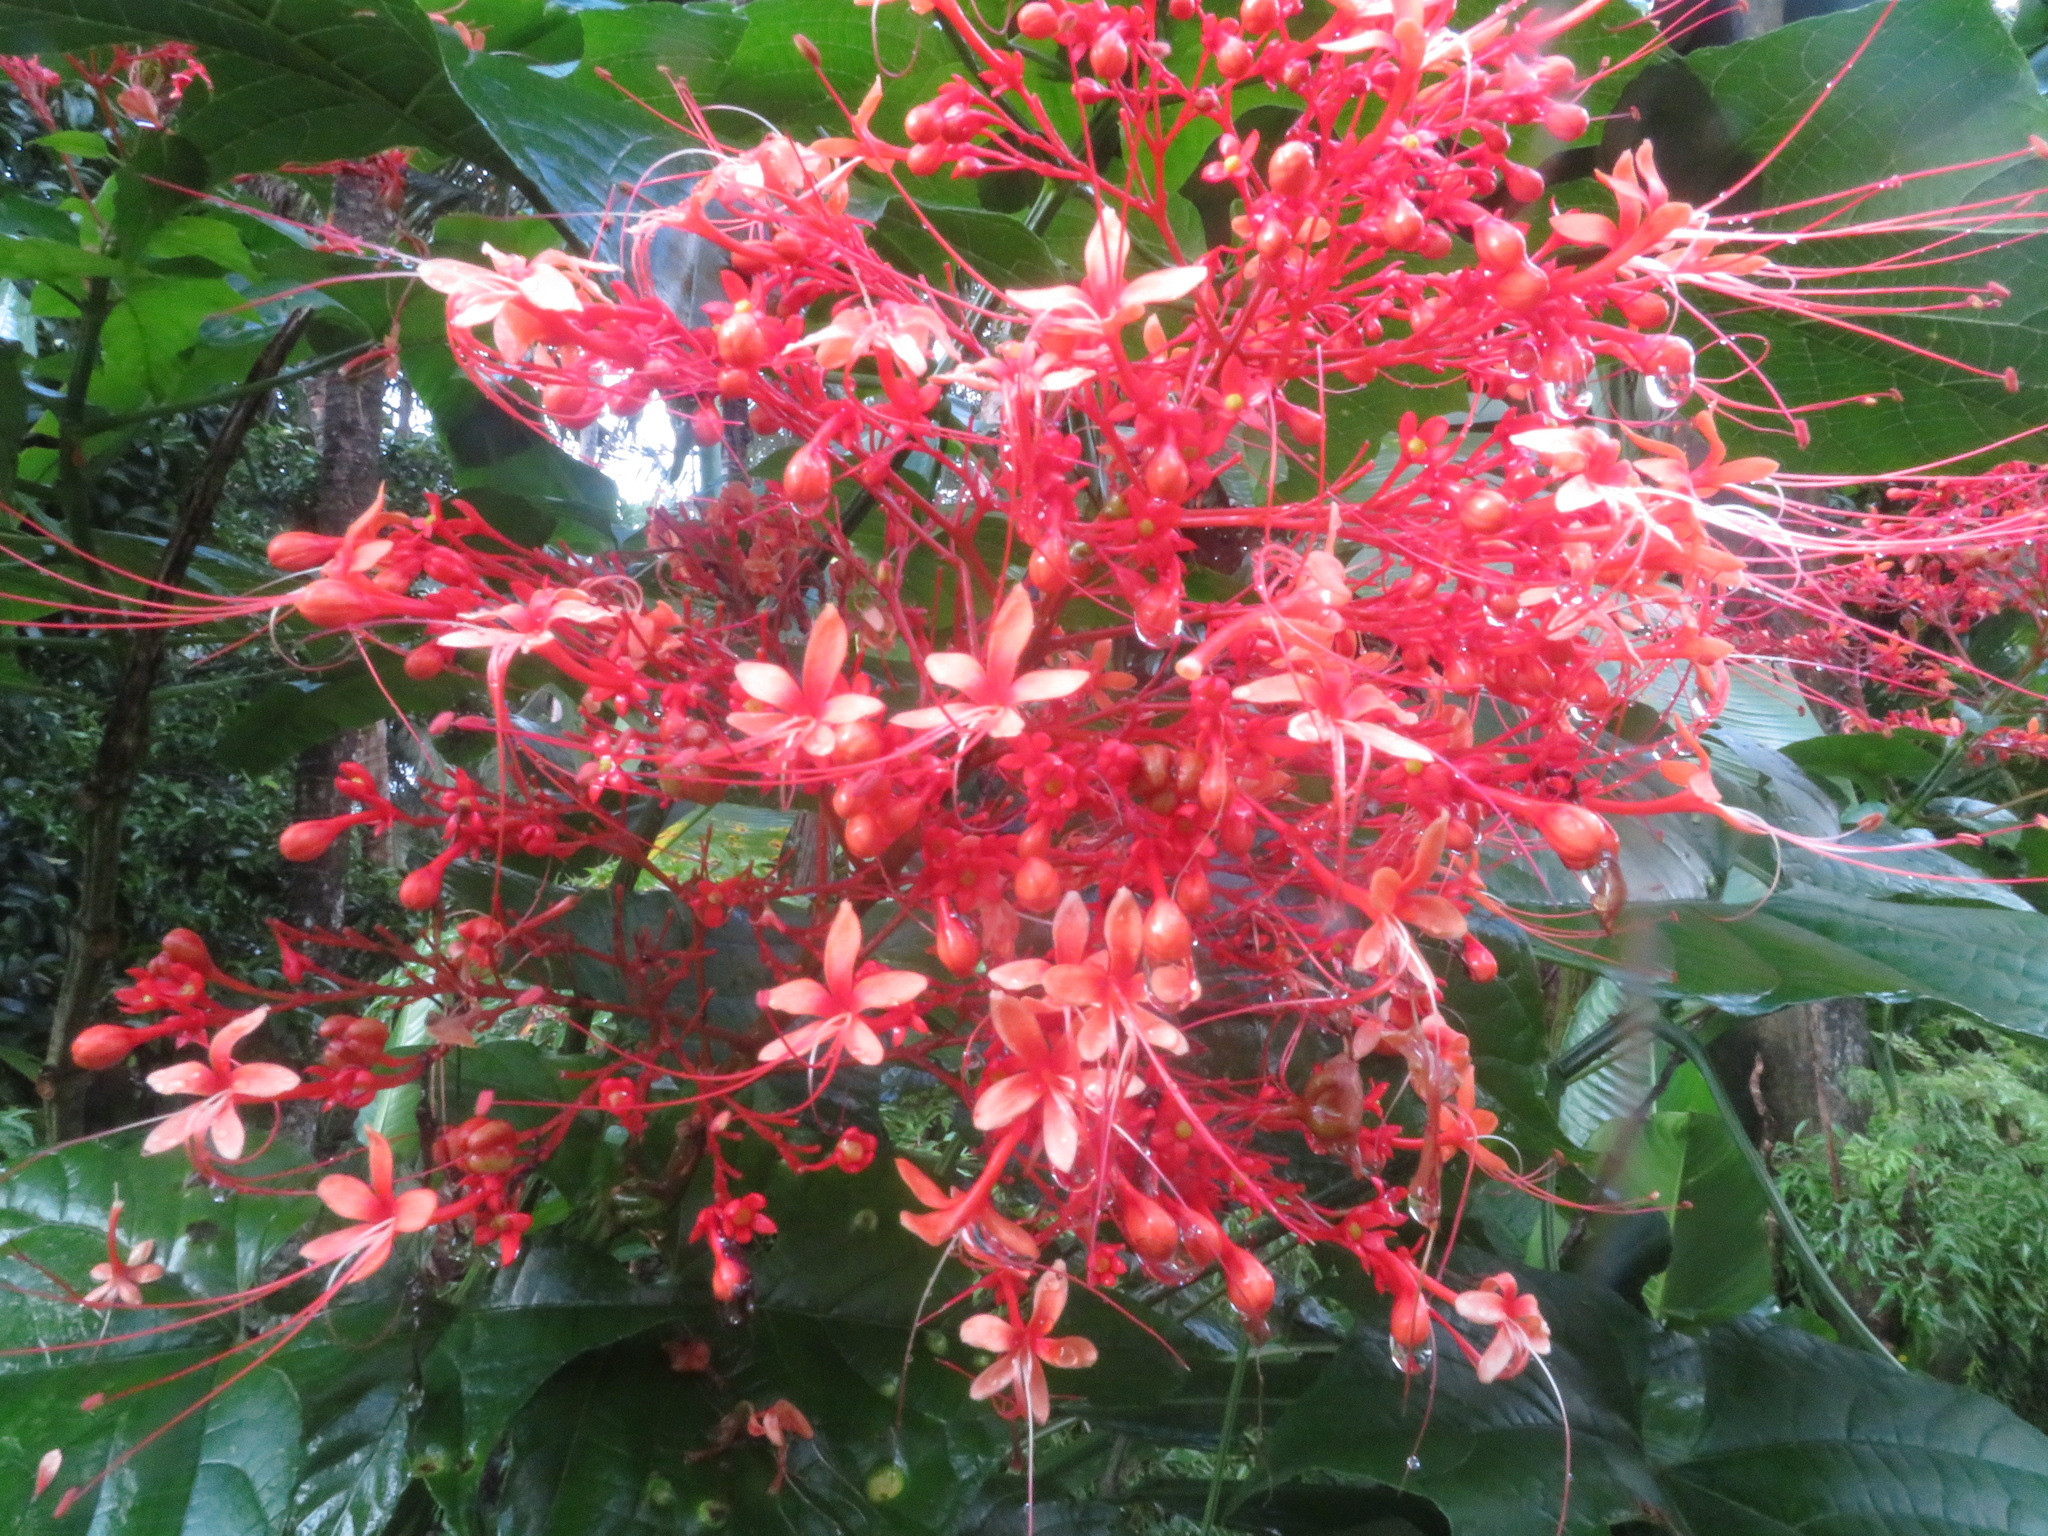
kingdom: Plantae
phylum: Tracheophyta
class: Magnoliopsida
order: Lamiales
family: Lamiaceae
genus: Clerodendrum
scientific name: Clerodendrum paniculatum
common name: Pagoda-flower
